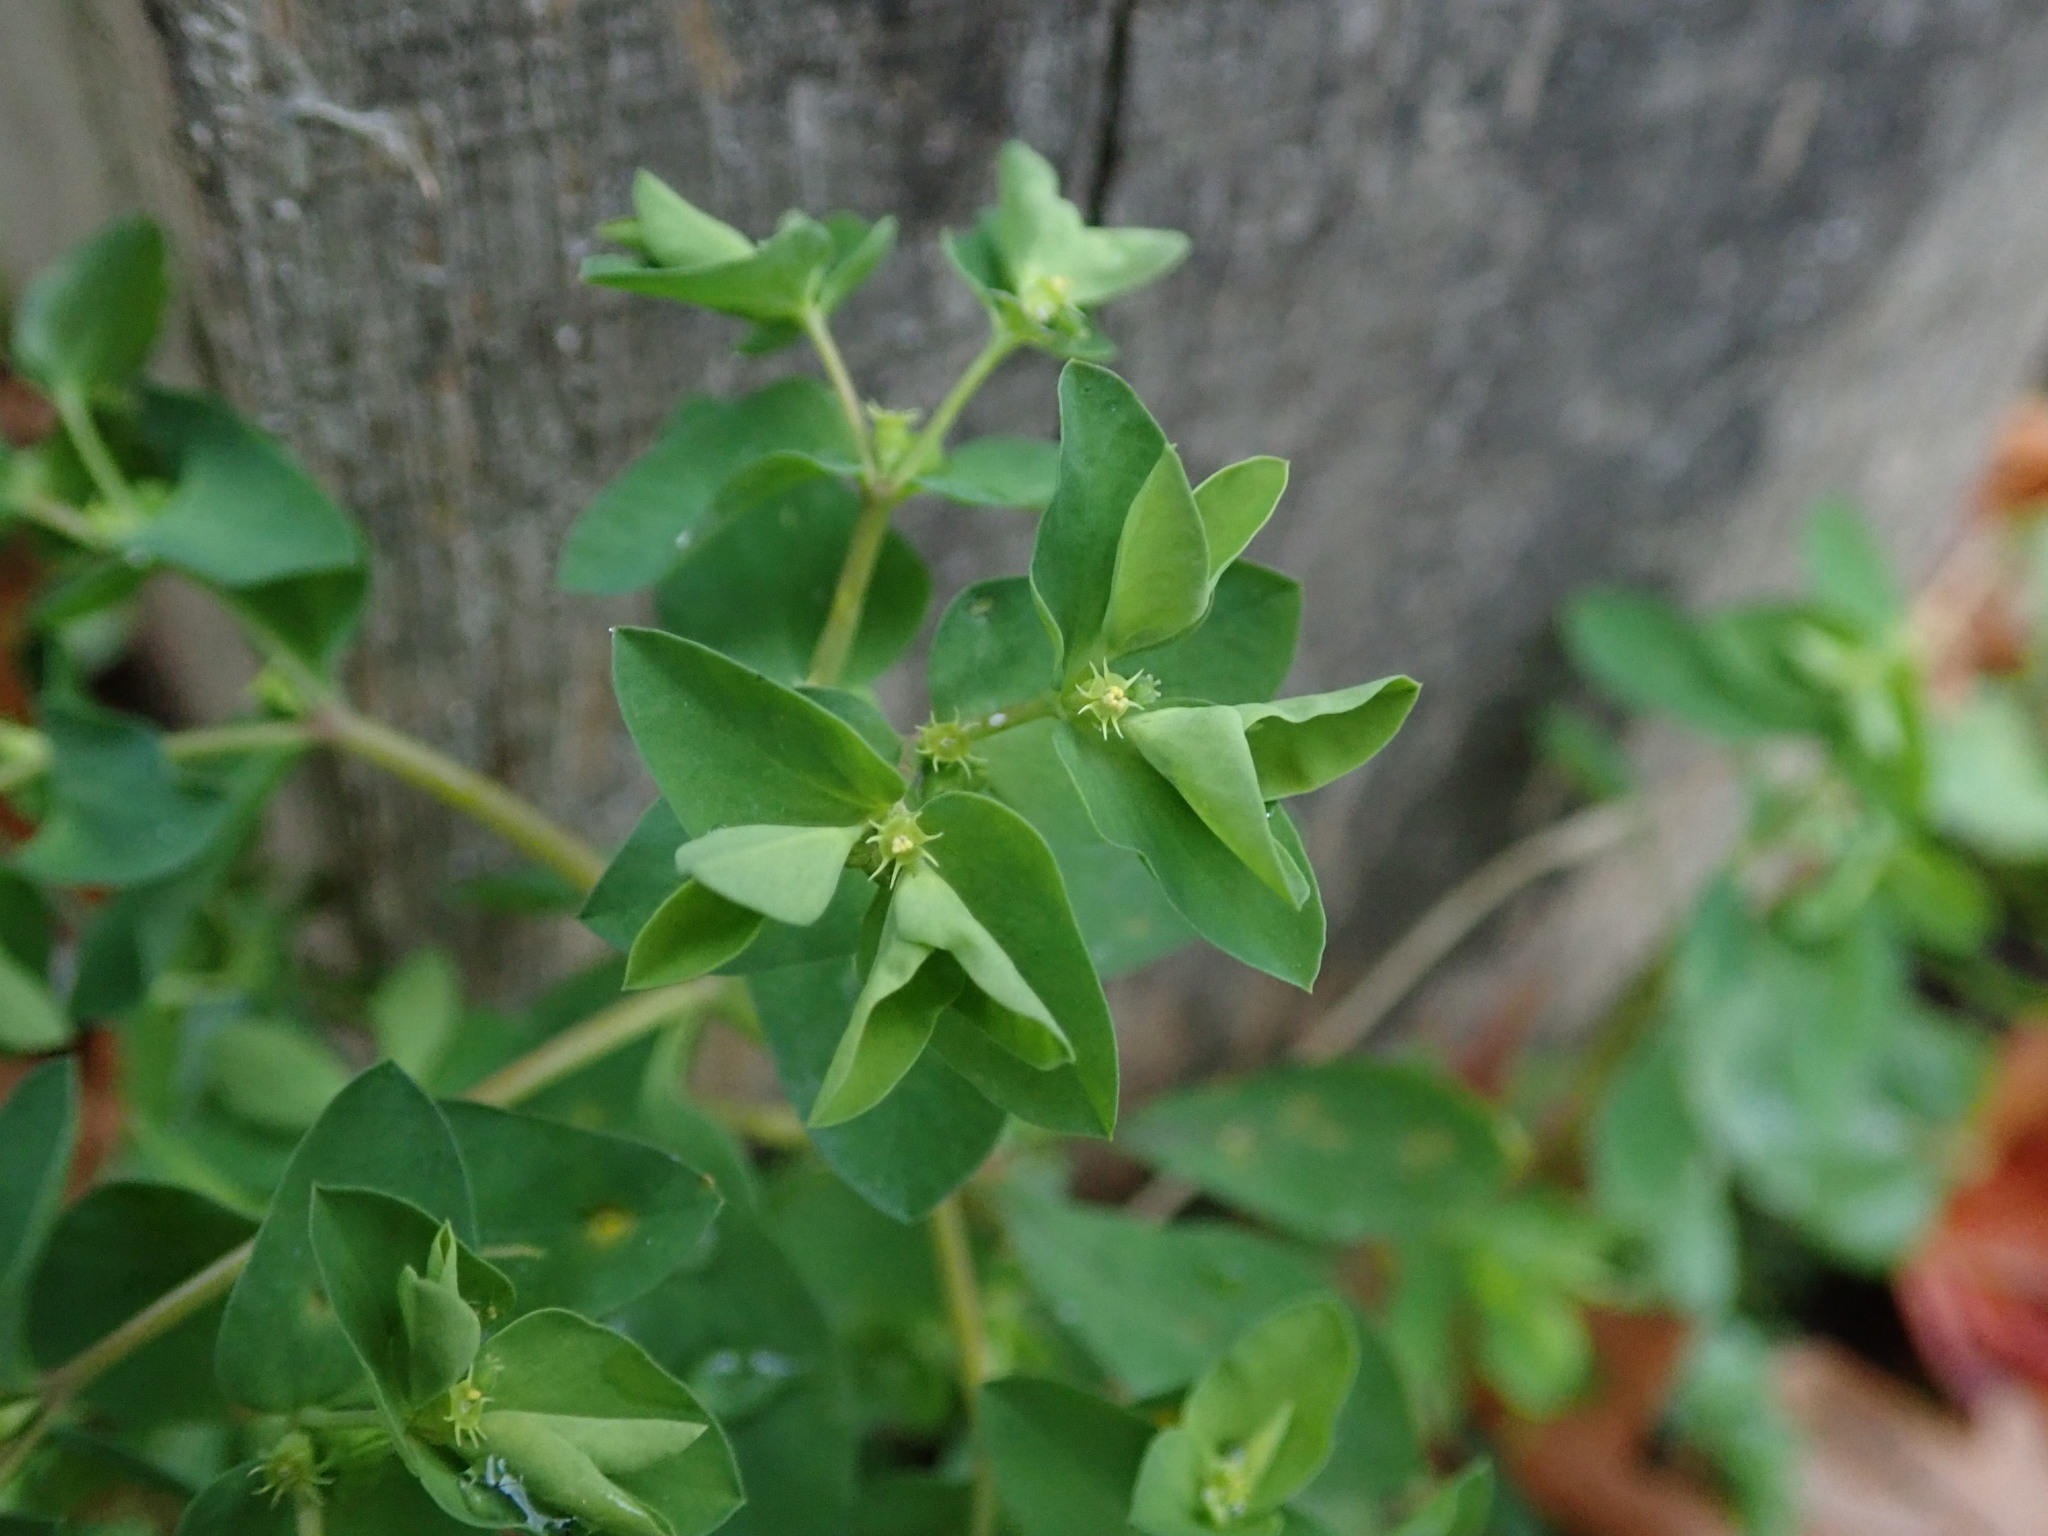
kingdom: Plantae
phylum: Tracheophyta
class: Magnoliopsida
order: Malpighiales
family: Euphorbiaceae
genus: Euphorbia
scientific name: Euphorbia peplus
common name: Petty spurge
